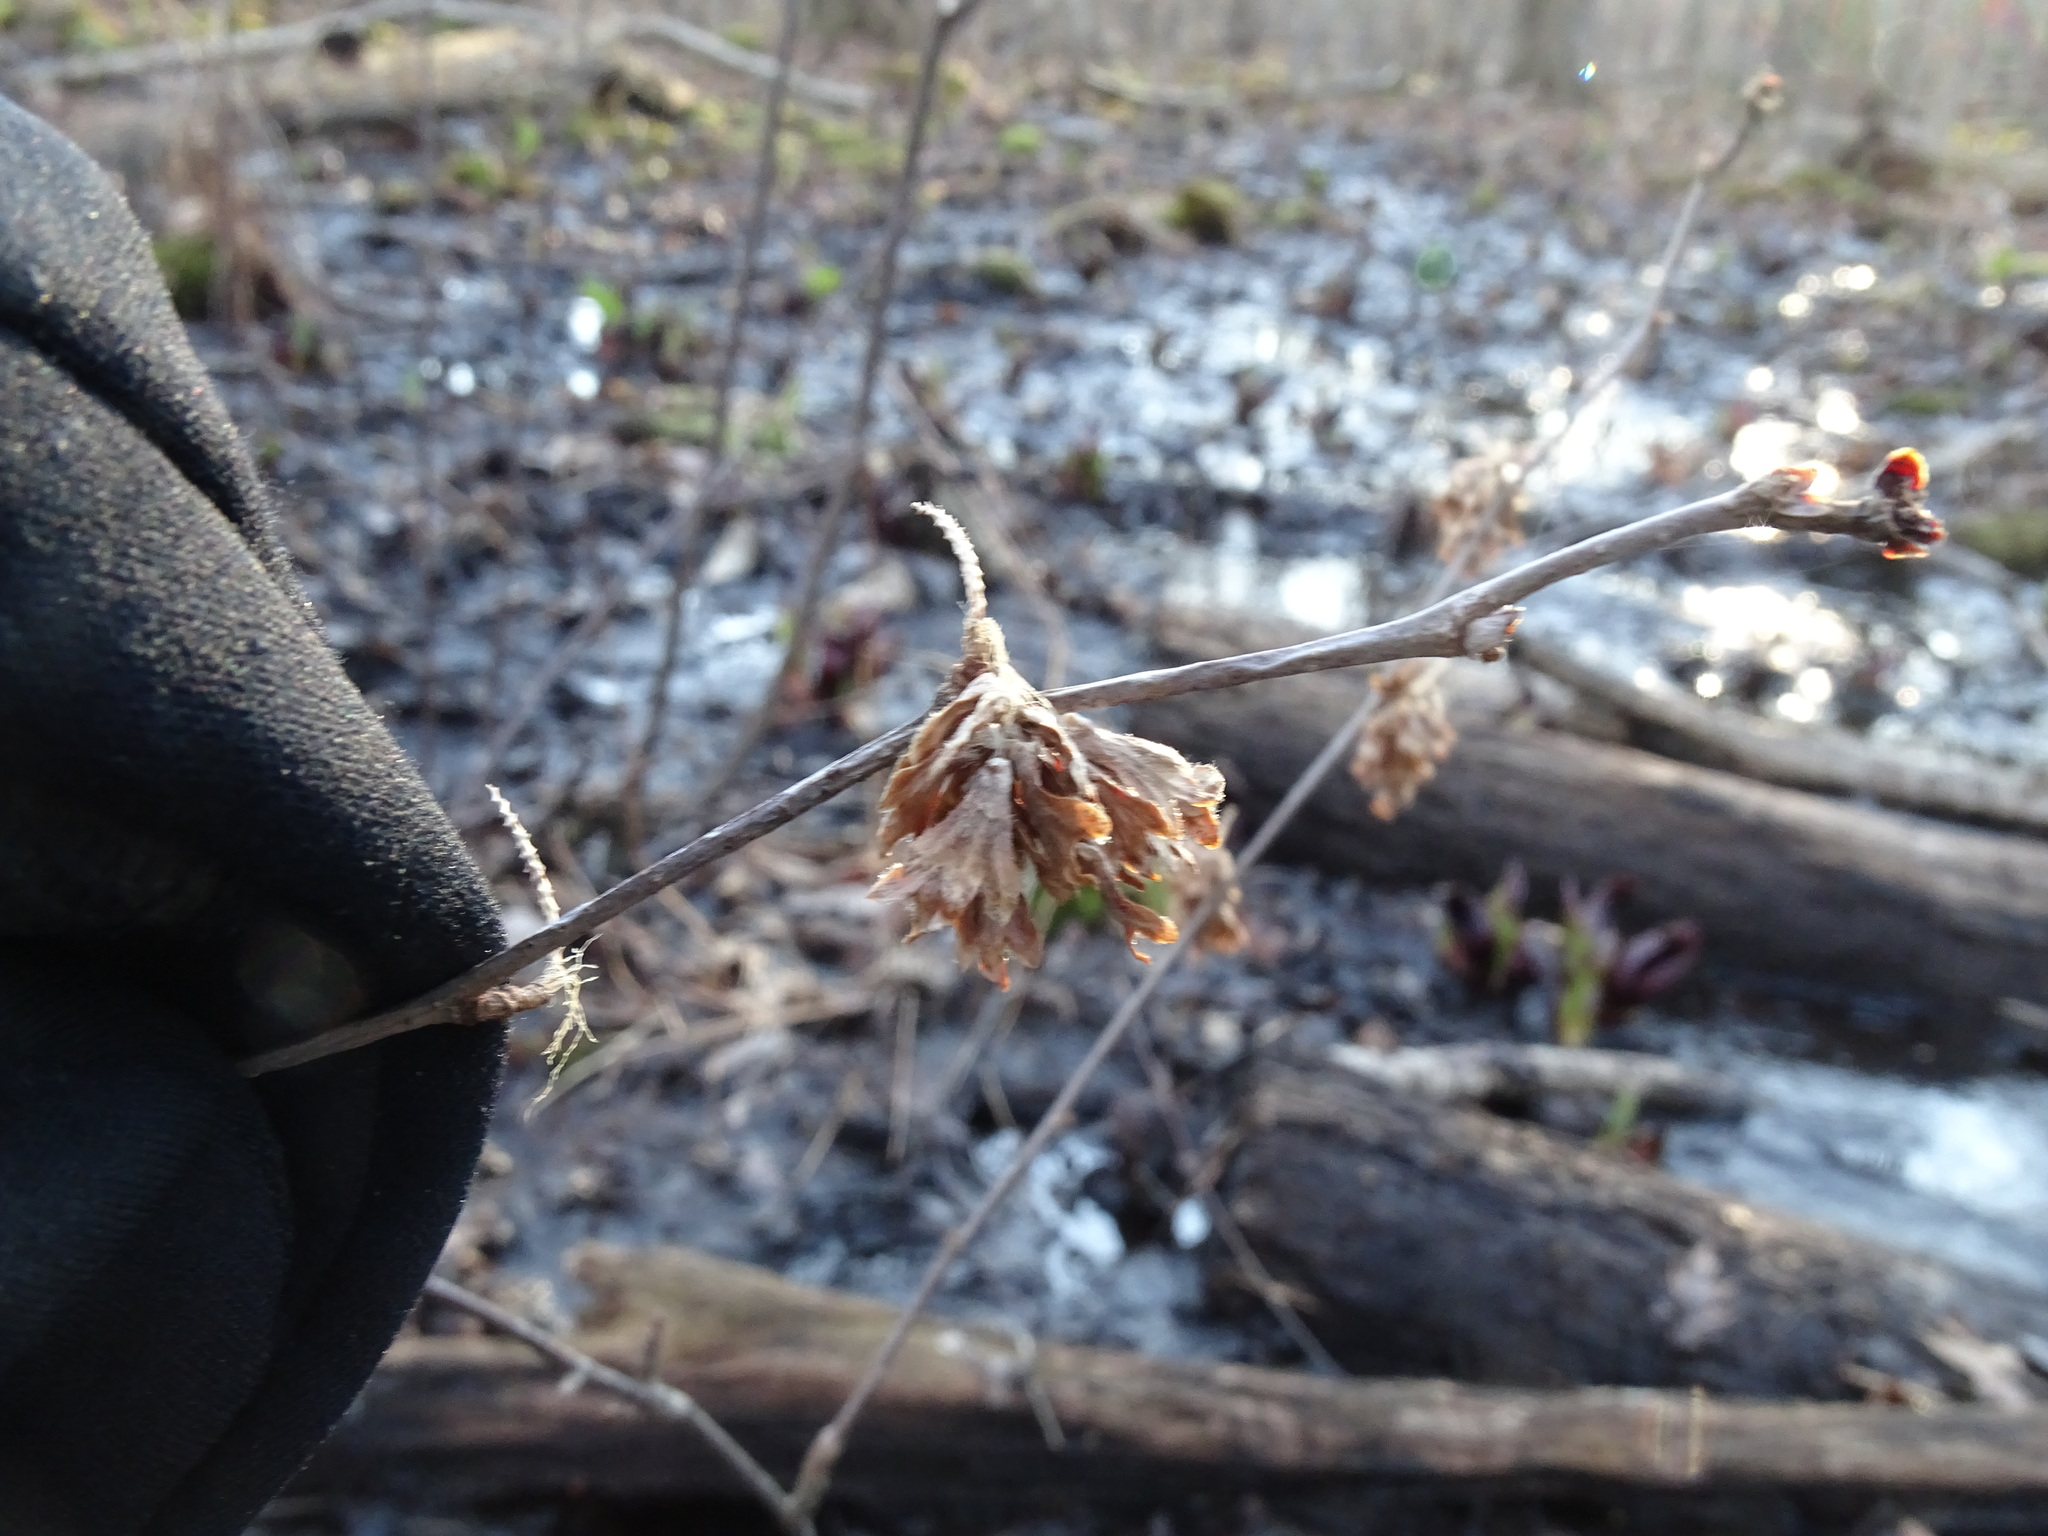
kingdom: Plantae
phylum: Tracheophyta
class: Magnoliopsida
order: Fagales
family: Betulaceae
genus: Betula
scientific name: Betula alleghaniensis
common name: Yellow birch
